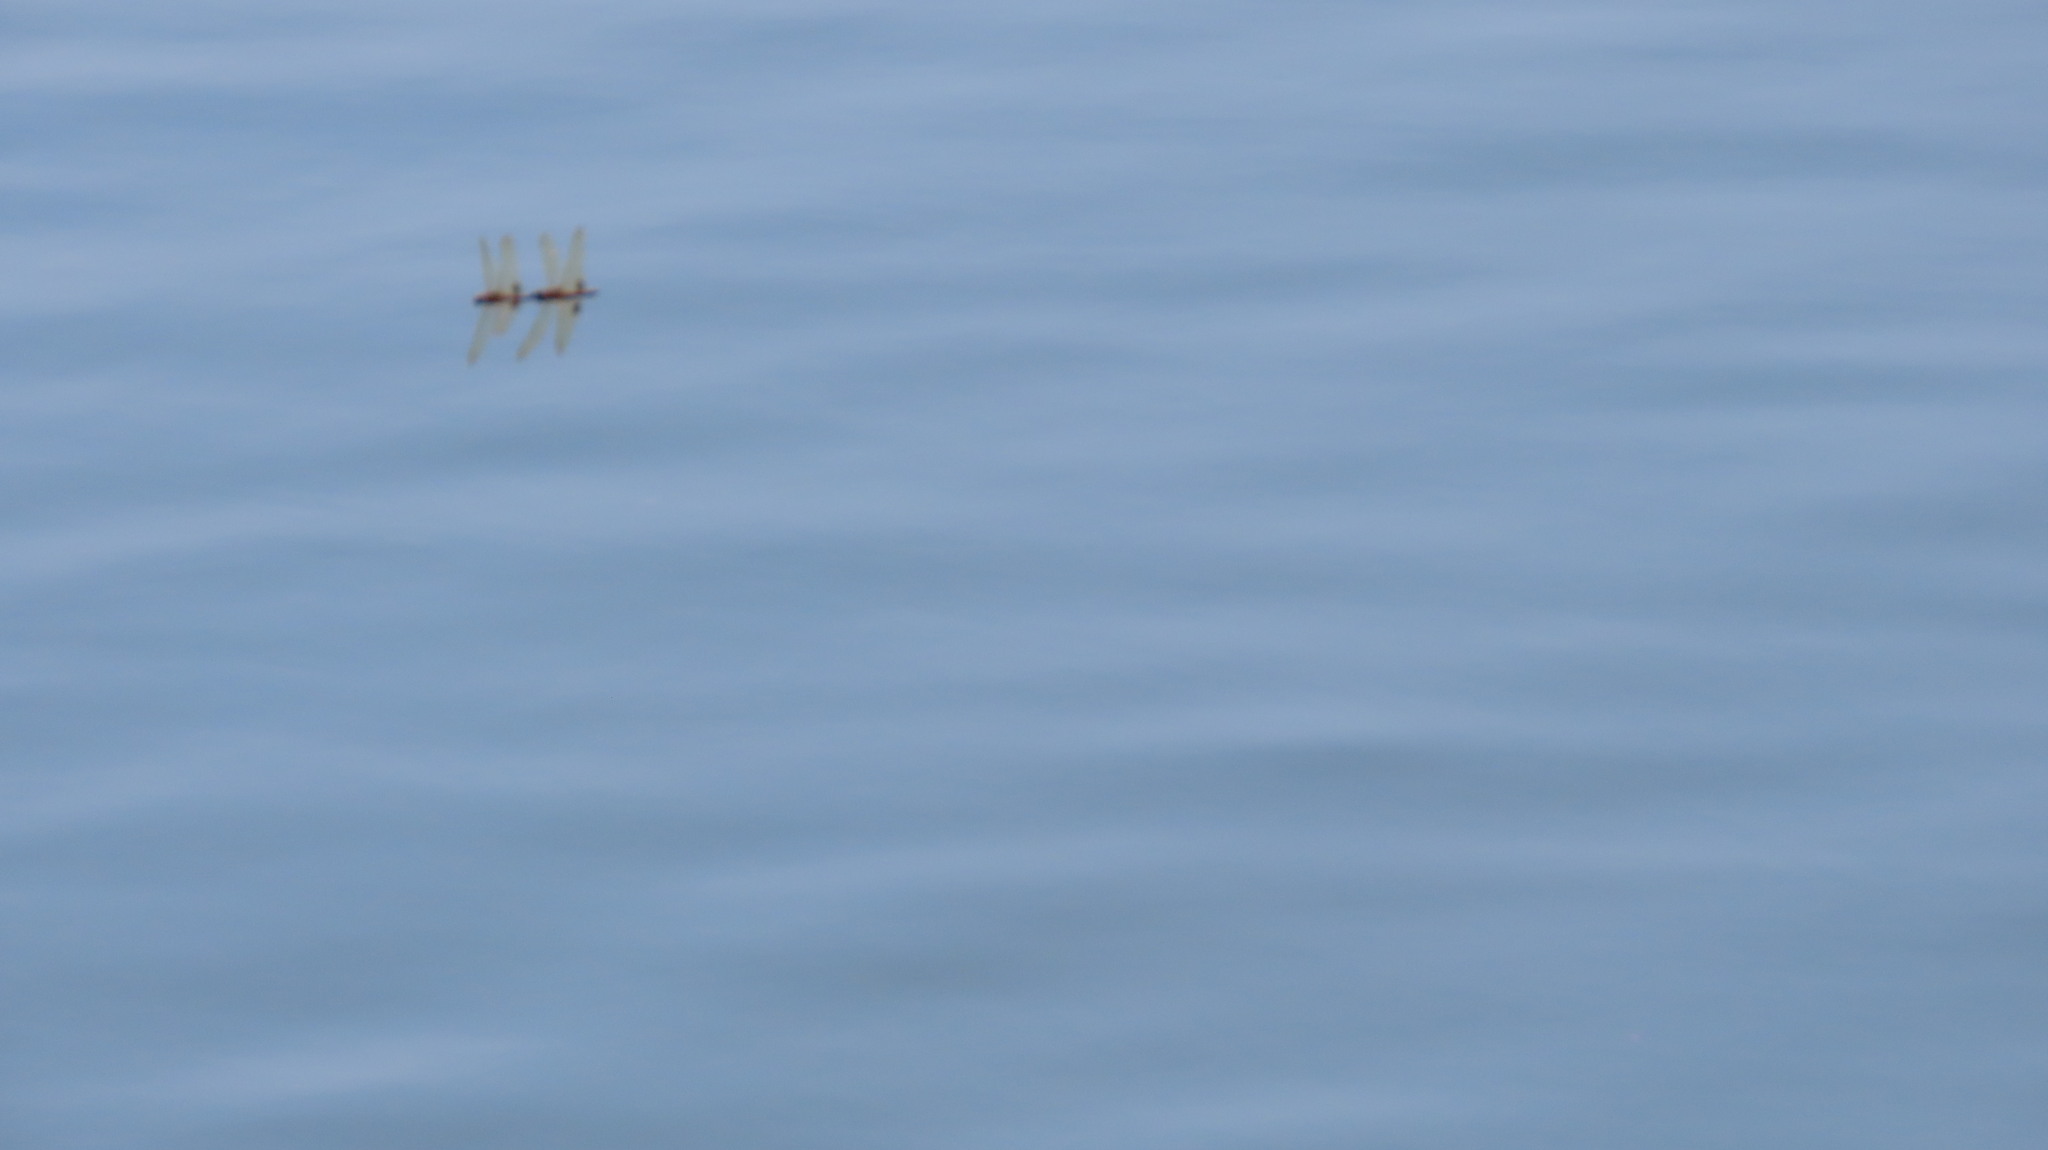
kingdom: Animalia
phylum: Arthropoda
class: Insecta
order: Odonata
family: Libellulidae
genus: Hydrobasileus
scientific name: Hydrobasileus croceus
